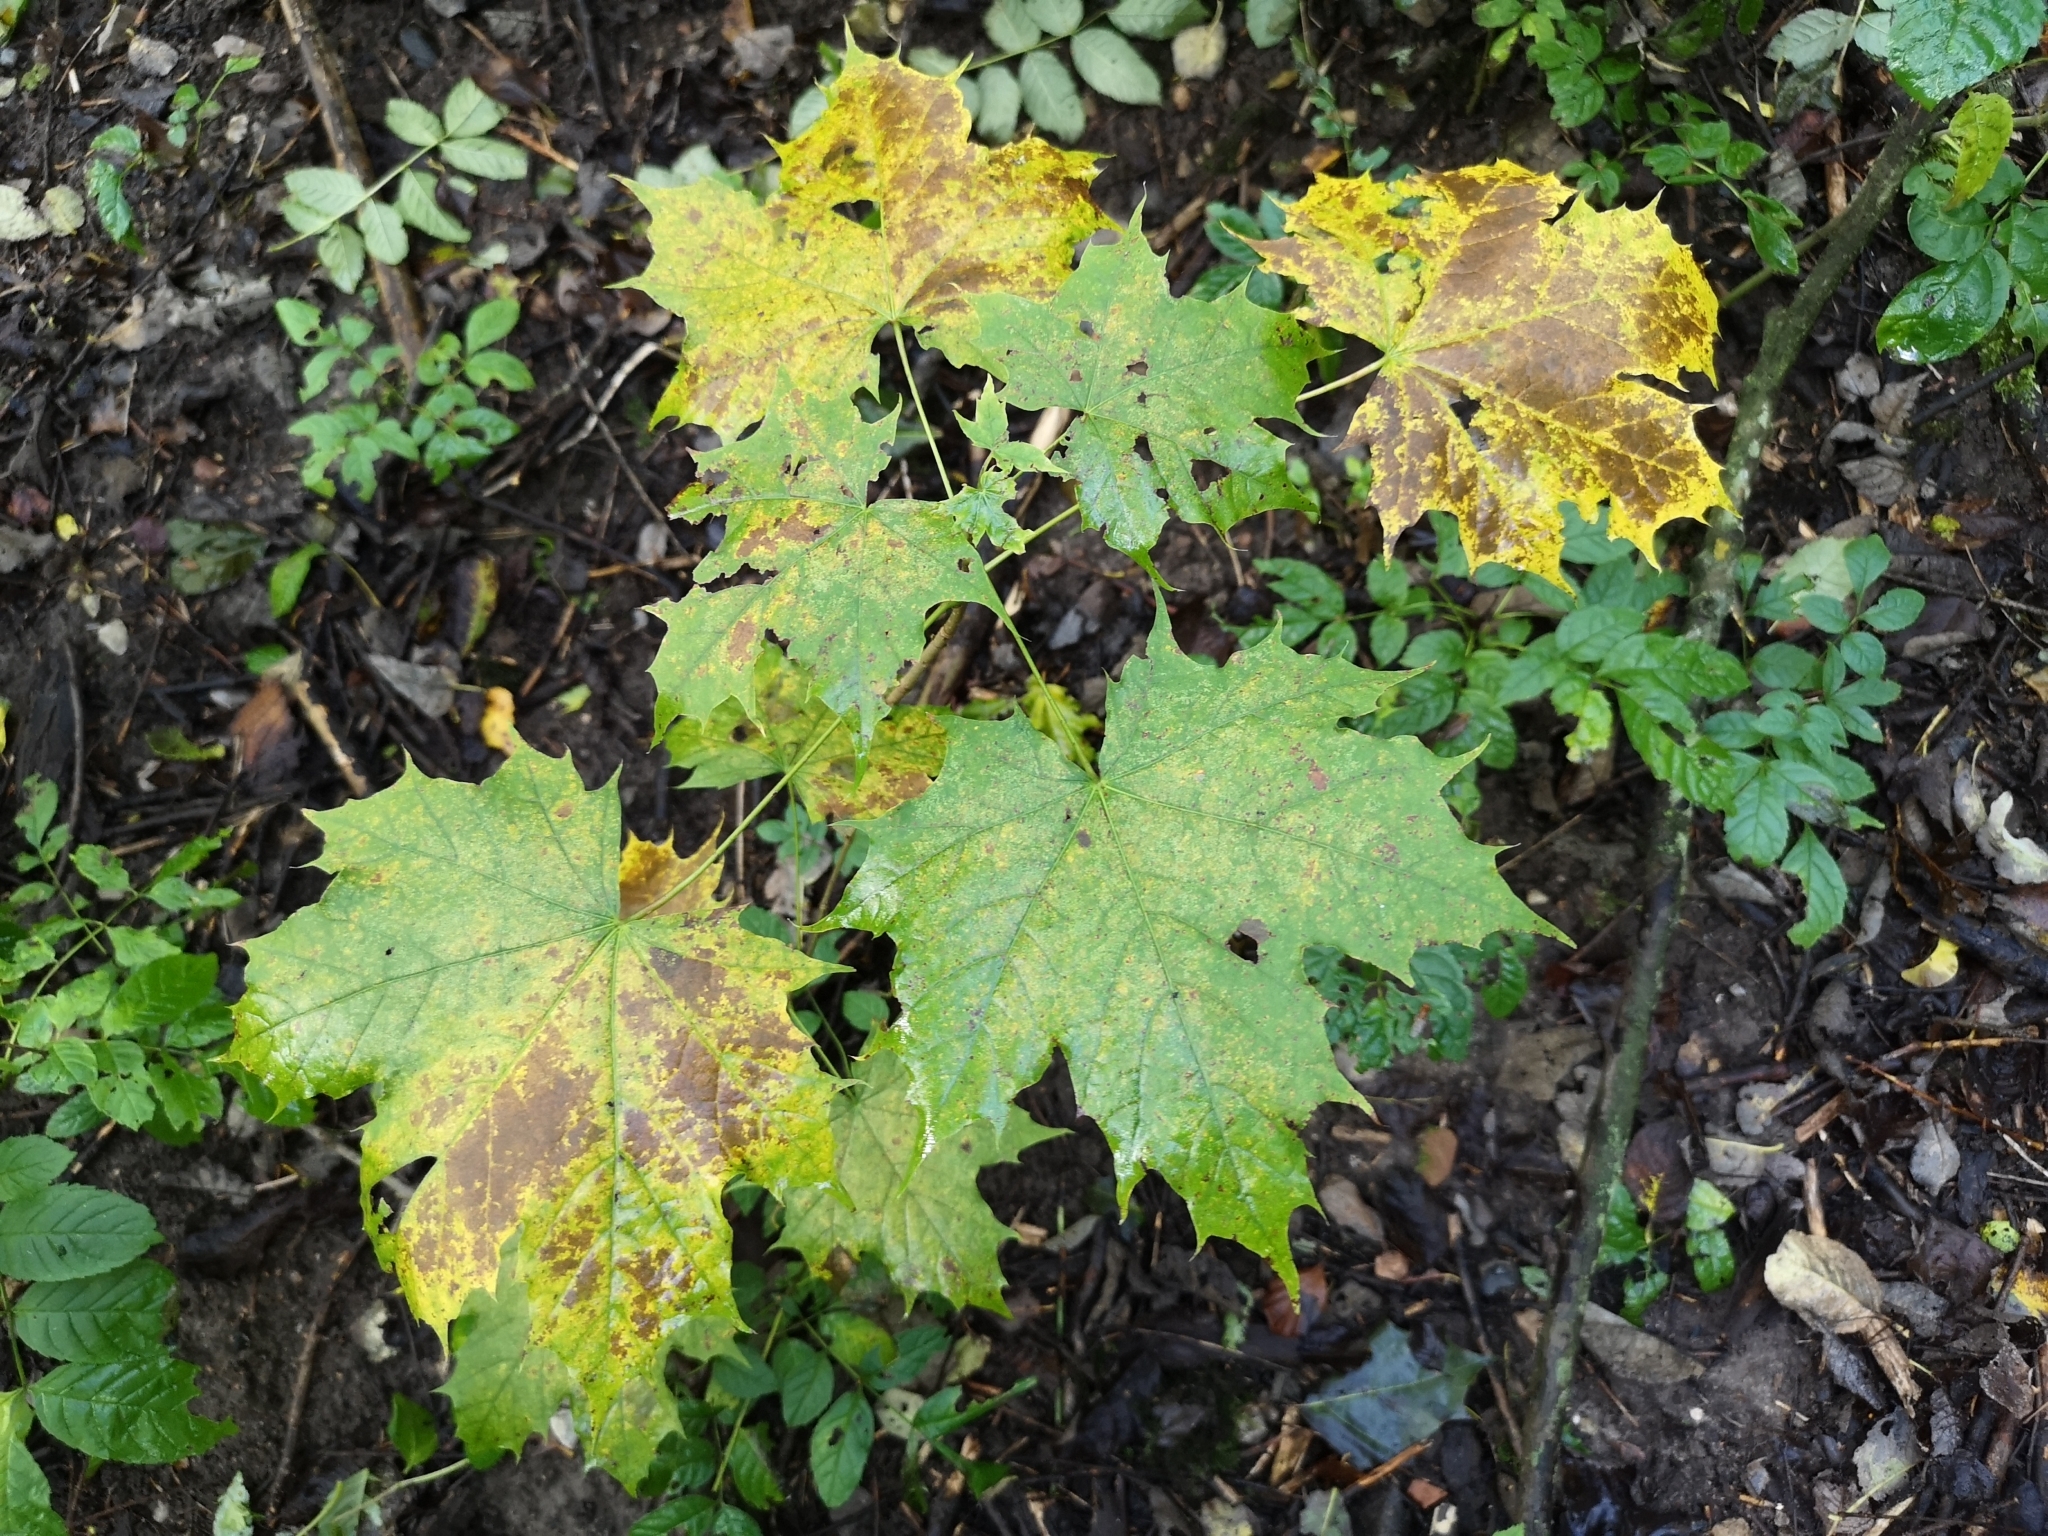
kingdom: Plantae
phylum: Tracheophyta
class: Magnoliopsida
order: Sapindales
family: Sapindaceae
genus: Acer
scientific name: Acer platanoides
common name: Norway maple
